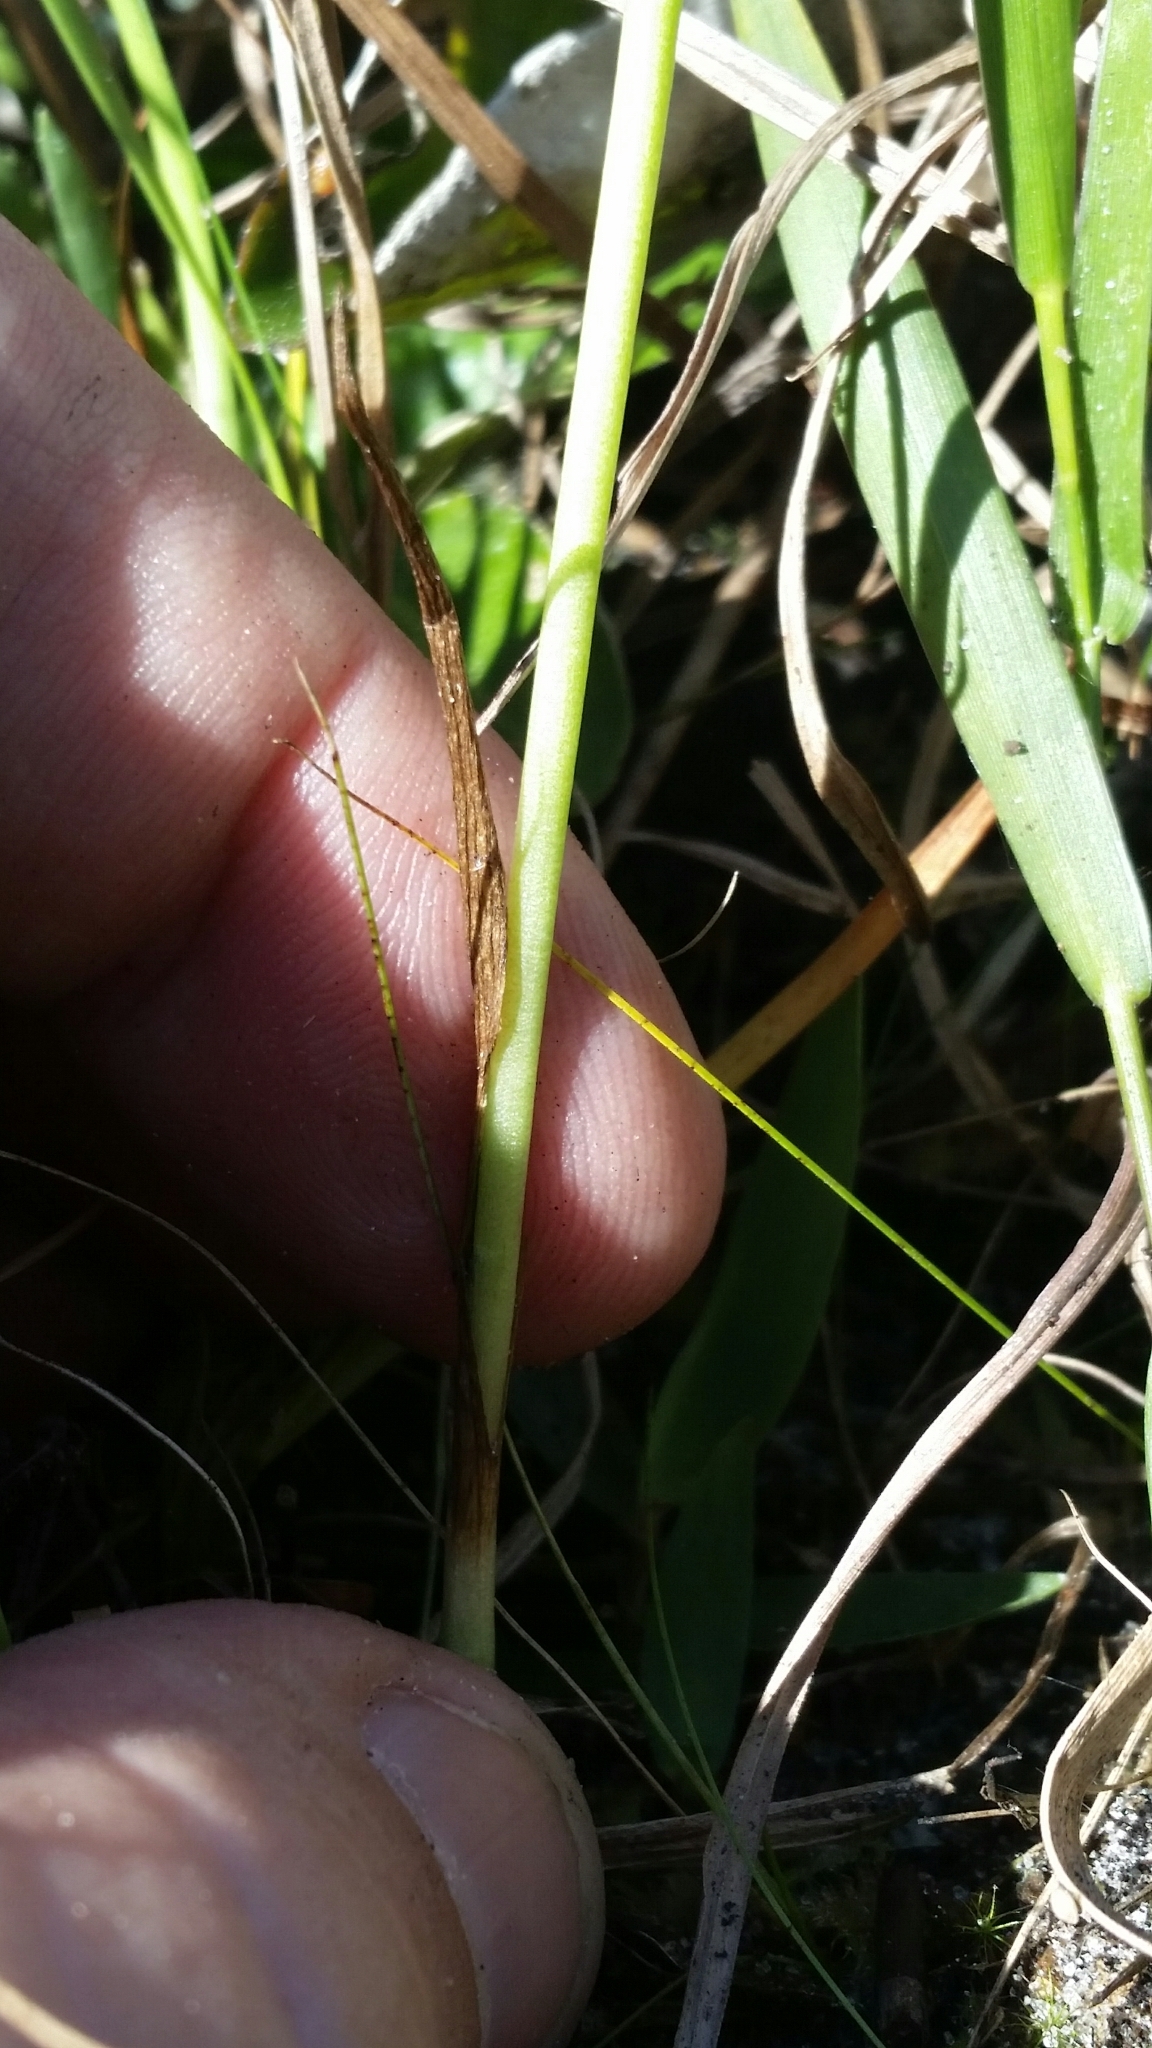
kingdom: Plantae
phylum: Tracheophyta
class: Liliopsida
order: Asparagales
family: Orchidaceae
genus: Spiranthes
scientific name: Spiranthes longilabris
